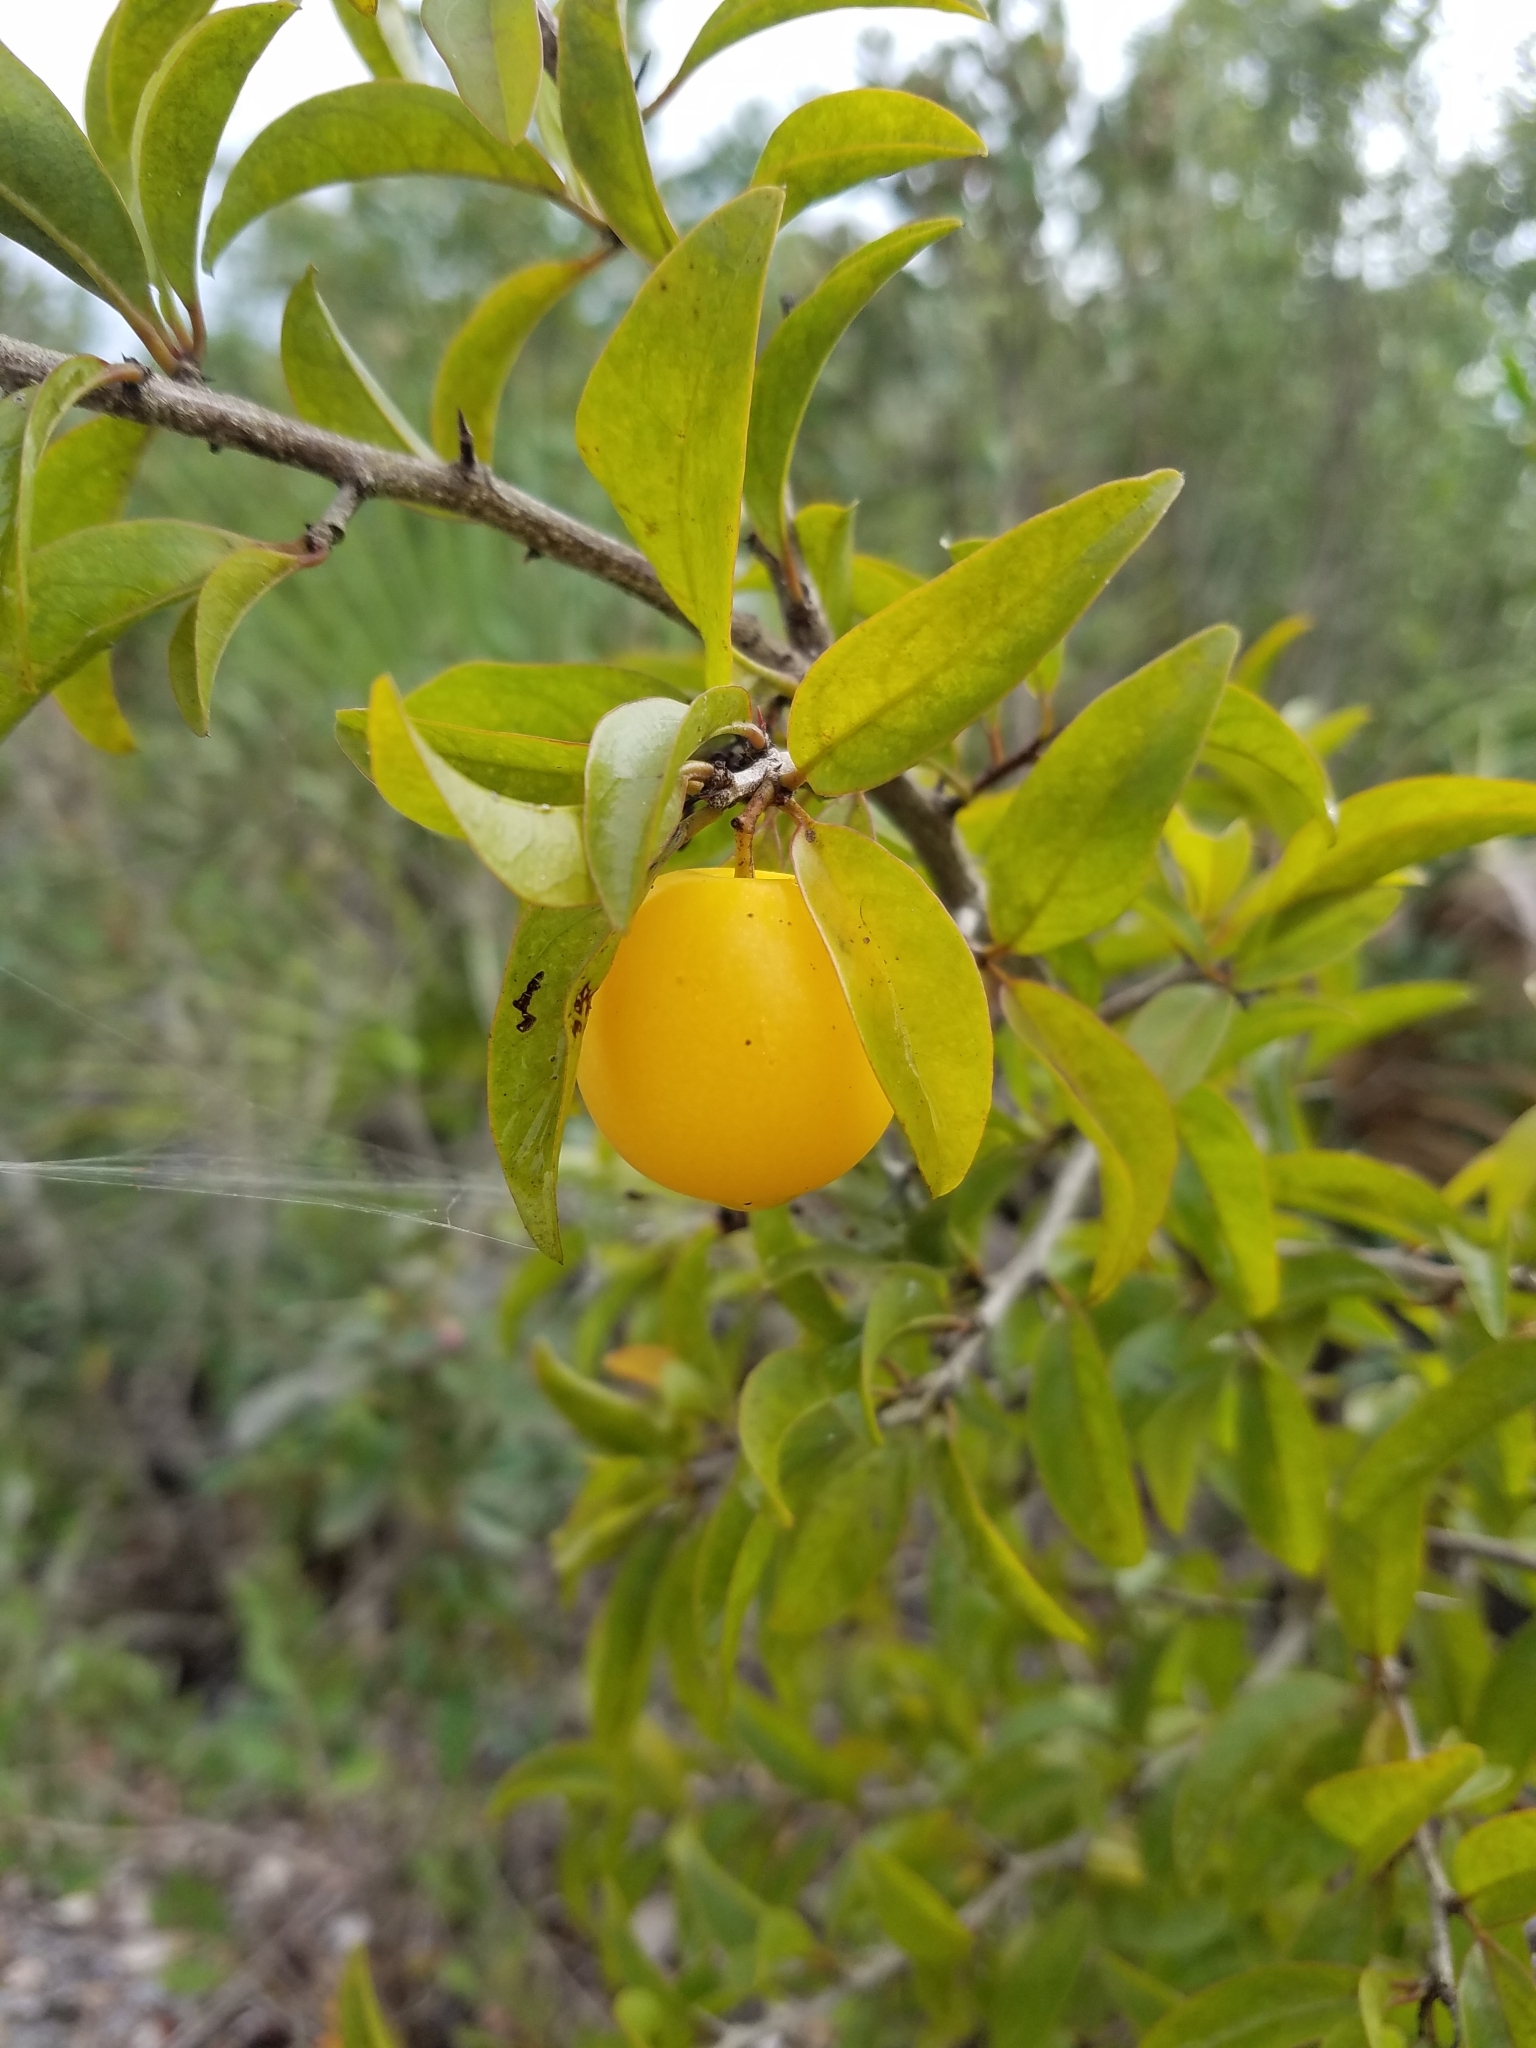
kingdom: Plantae
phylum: Tracheophyta
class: Magnoliopsida
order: Santalales
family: Ximeniaceae
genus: Ximenia
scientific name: Ximenia americana
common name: Tallowwood
